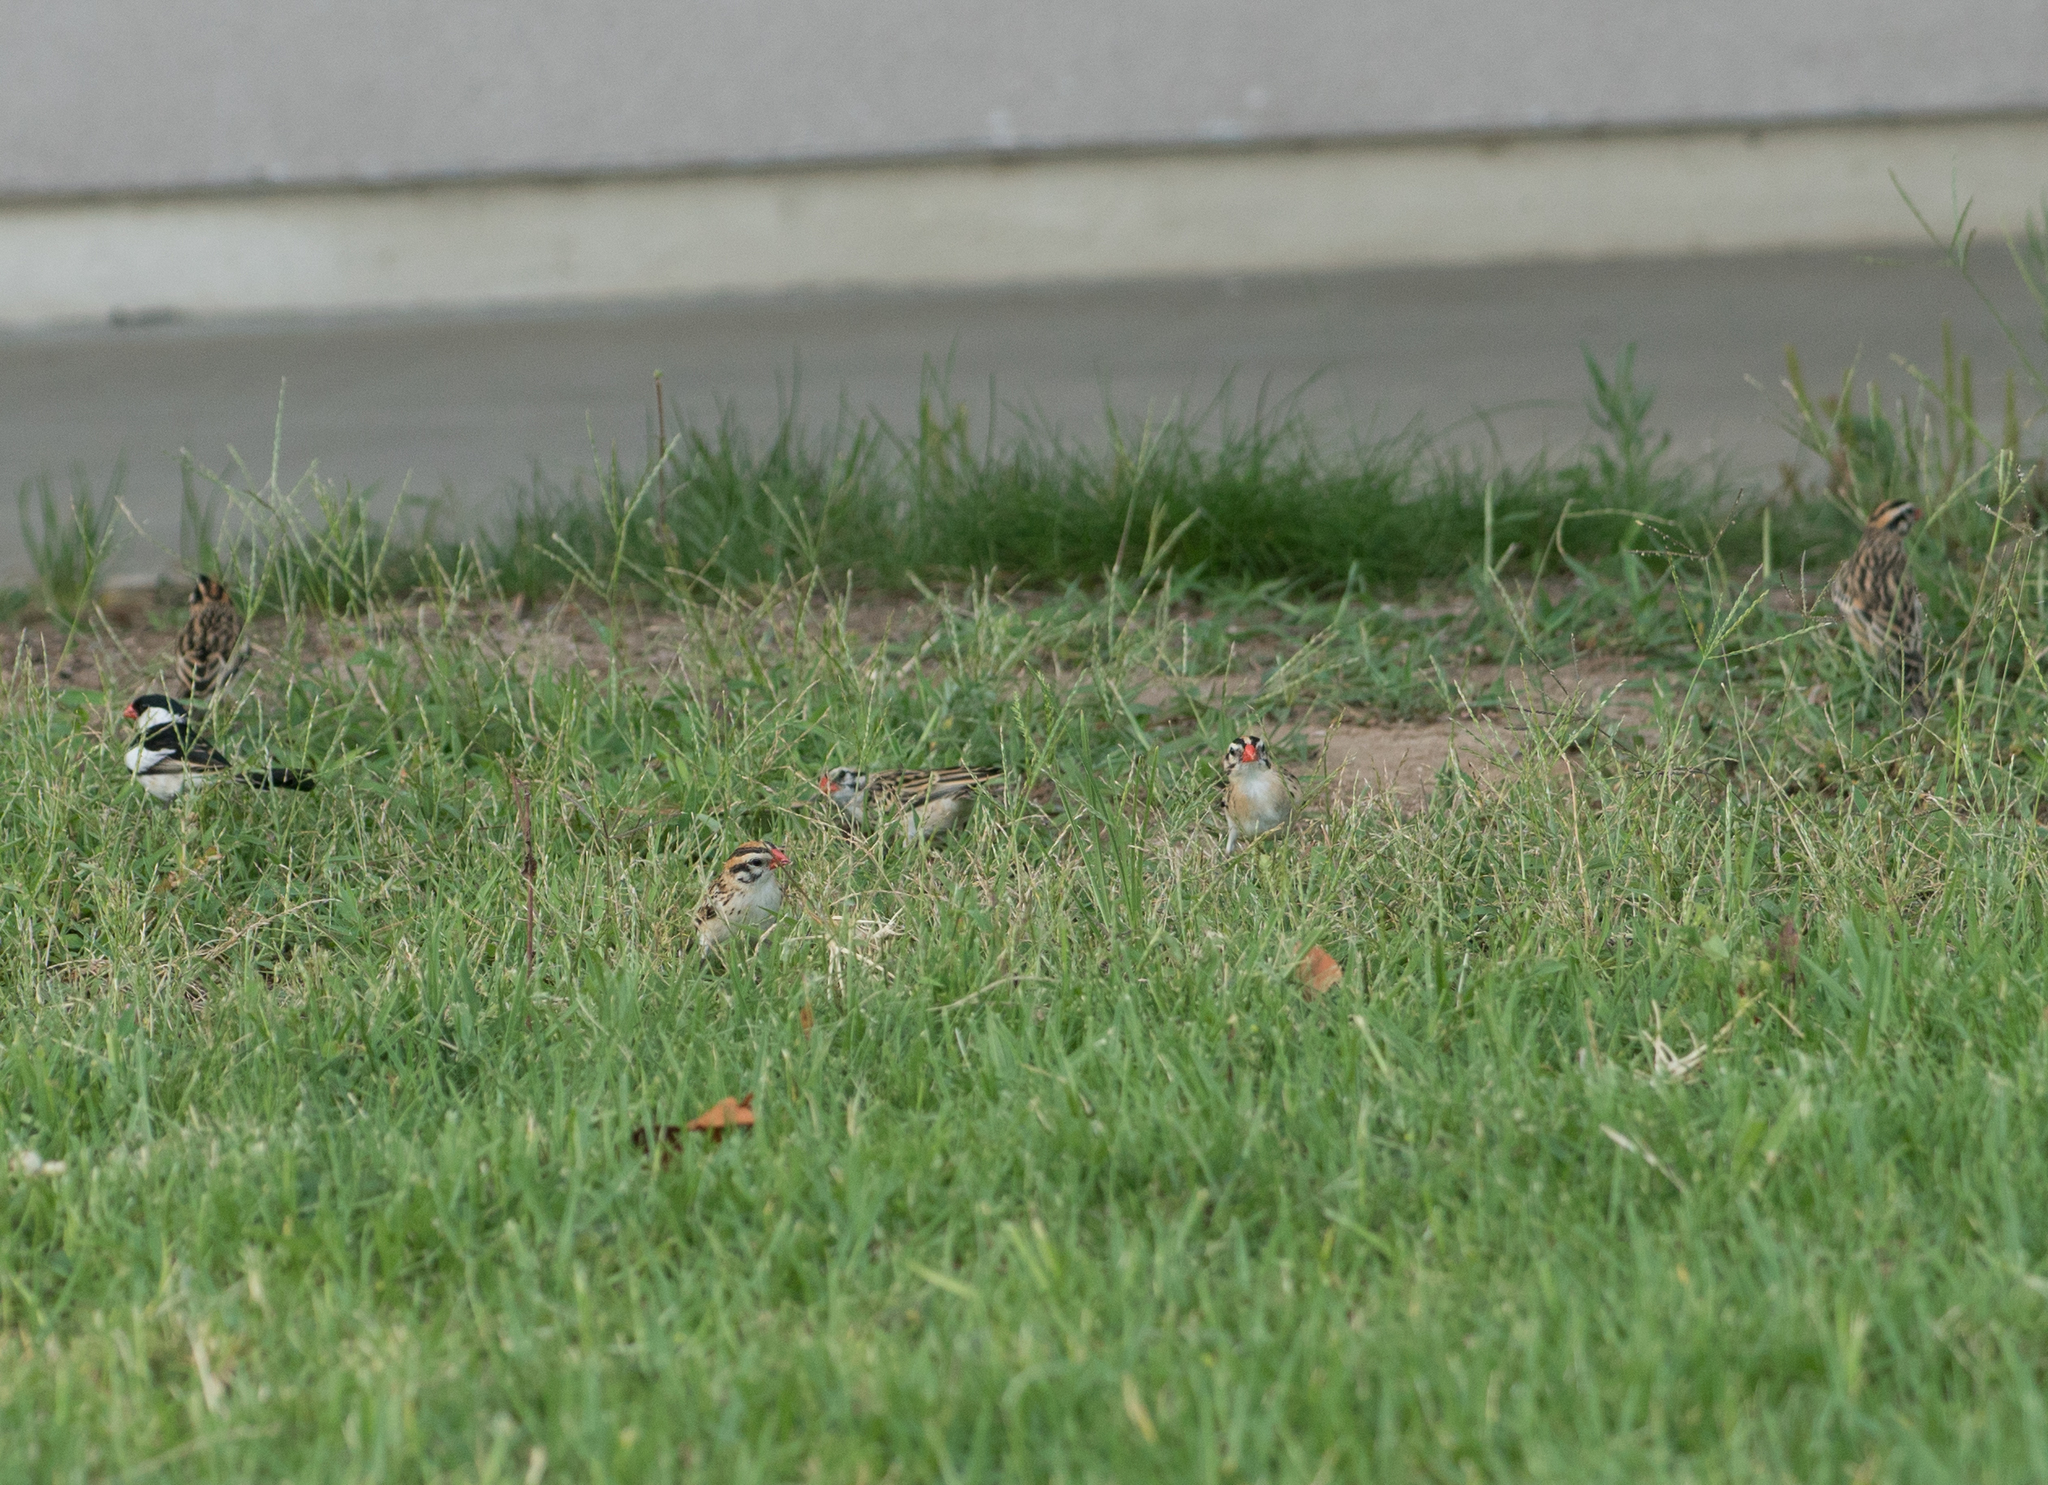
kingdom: Animalia
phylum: Chordata
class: Aves
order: Passeriformes
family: Viduidae
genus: Vidua
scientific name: Vidua macroura
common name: Pin-tailed whydah
